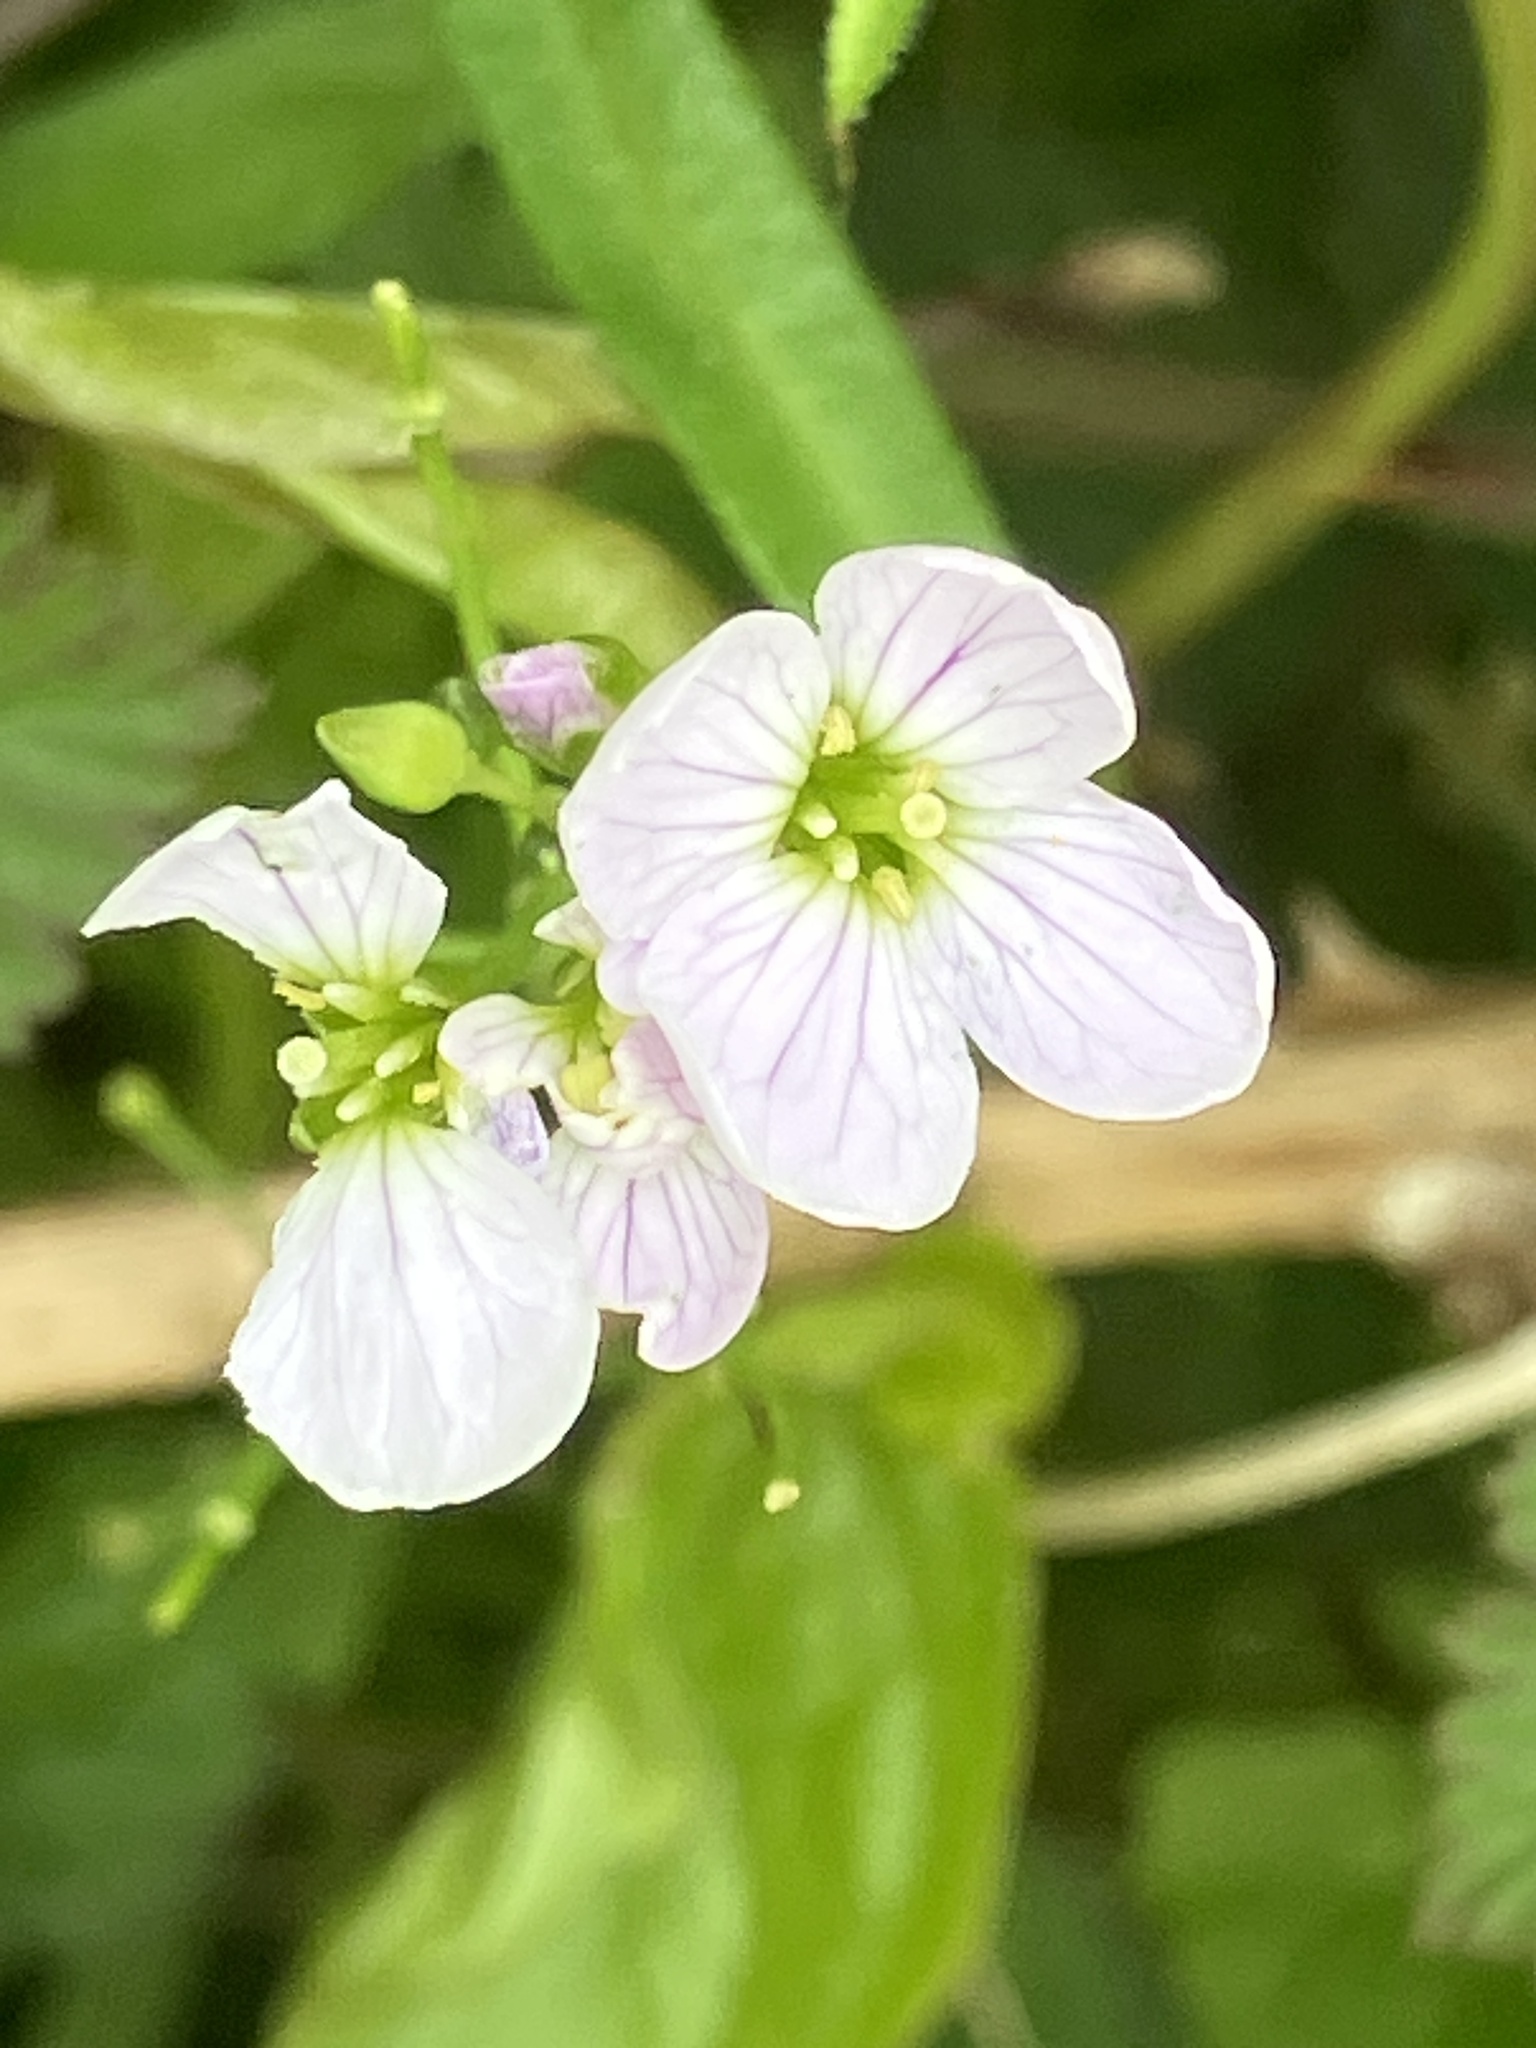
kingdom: Plantae
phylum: Tracheophyta
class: Magnoliopsida
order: Brassicales
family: Brassicaceae
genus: Cardamine
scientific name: Cardamine pratensis
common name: Cuckoo flower
